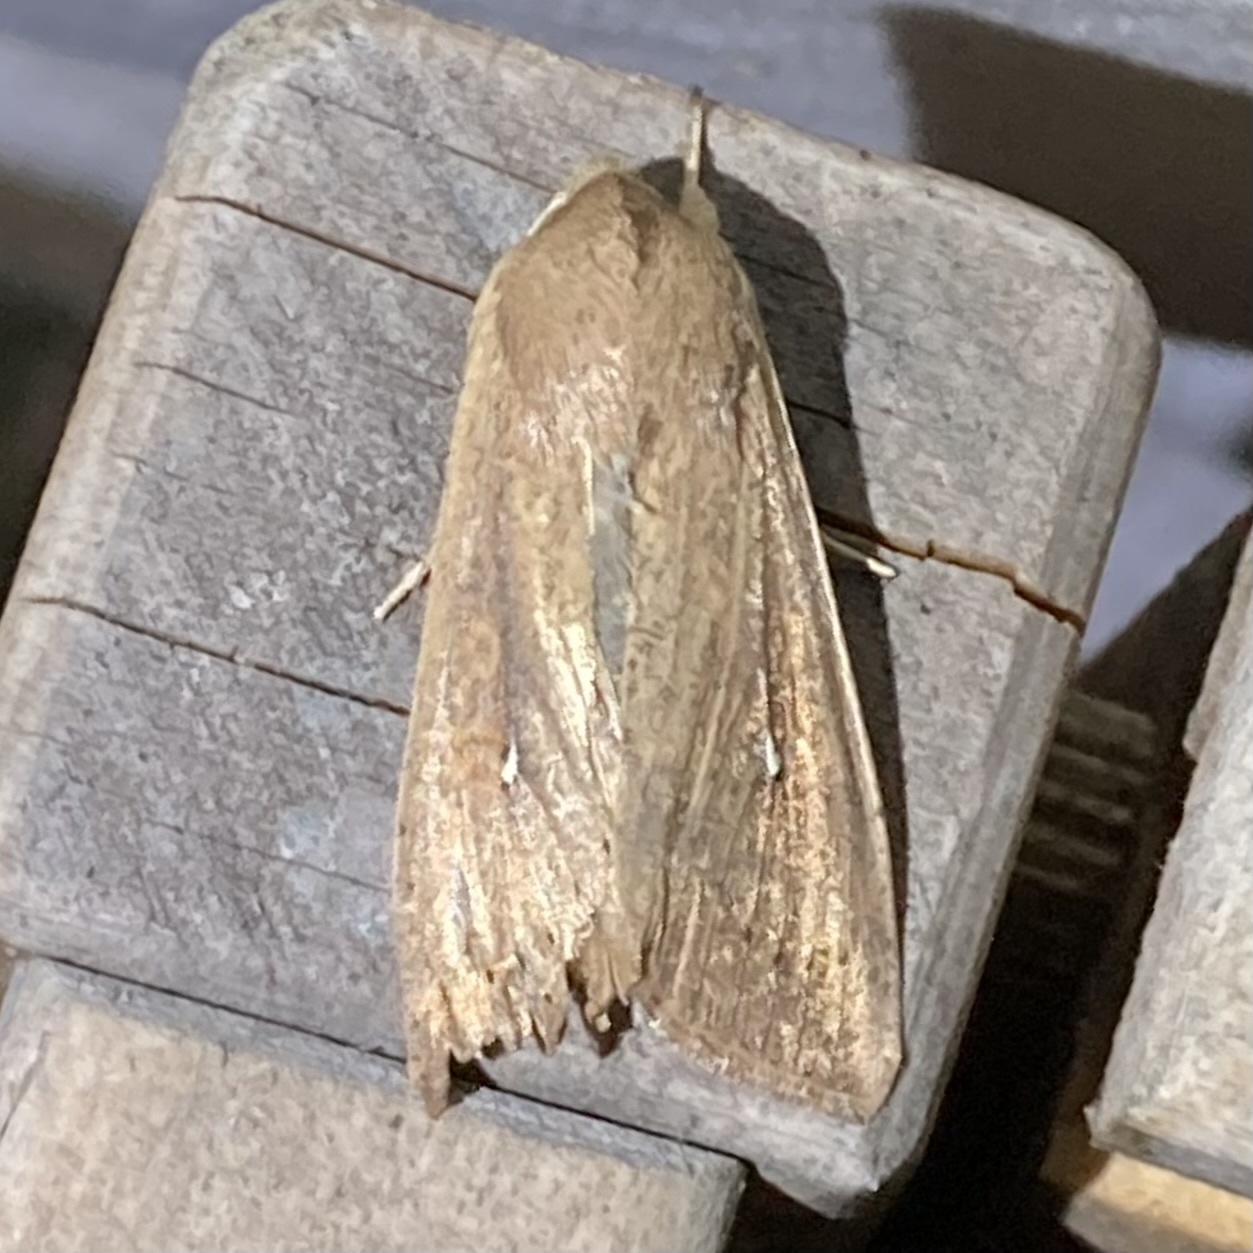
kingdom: Animalia
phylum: Arthropoda
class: Insecta
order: Lepidoptera
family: Noctuidae
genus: Mythimna
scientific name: Mythimna unipuncta
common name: White-speck
